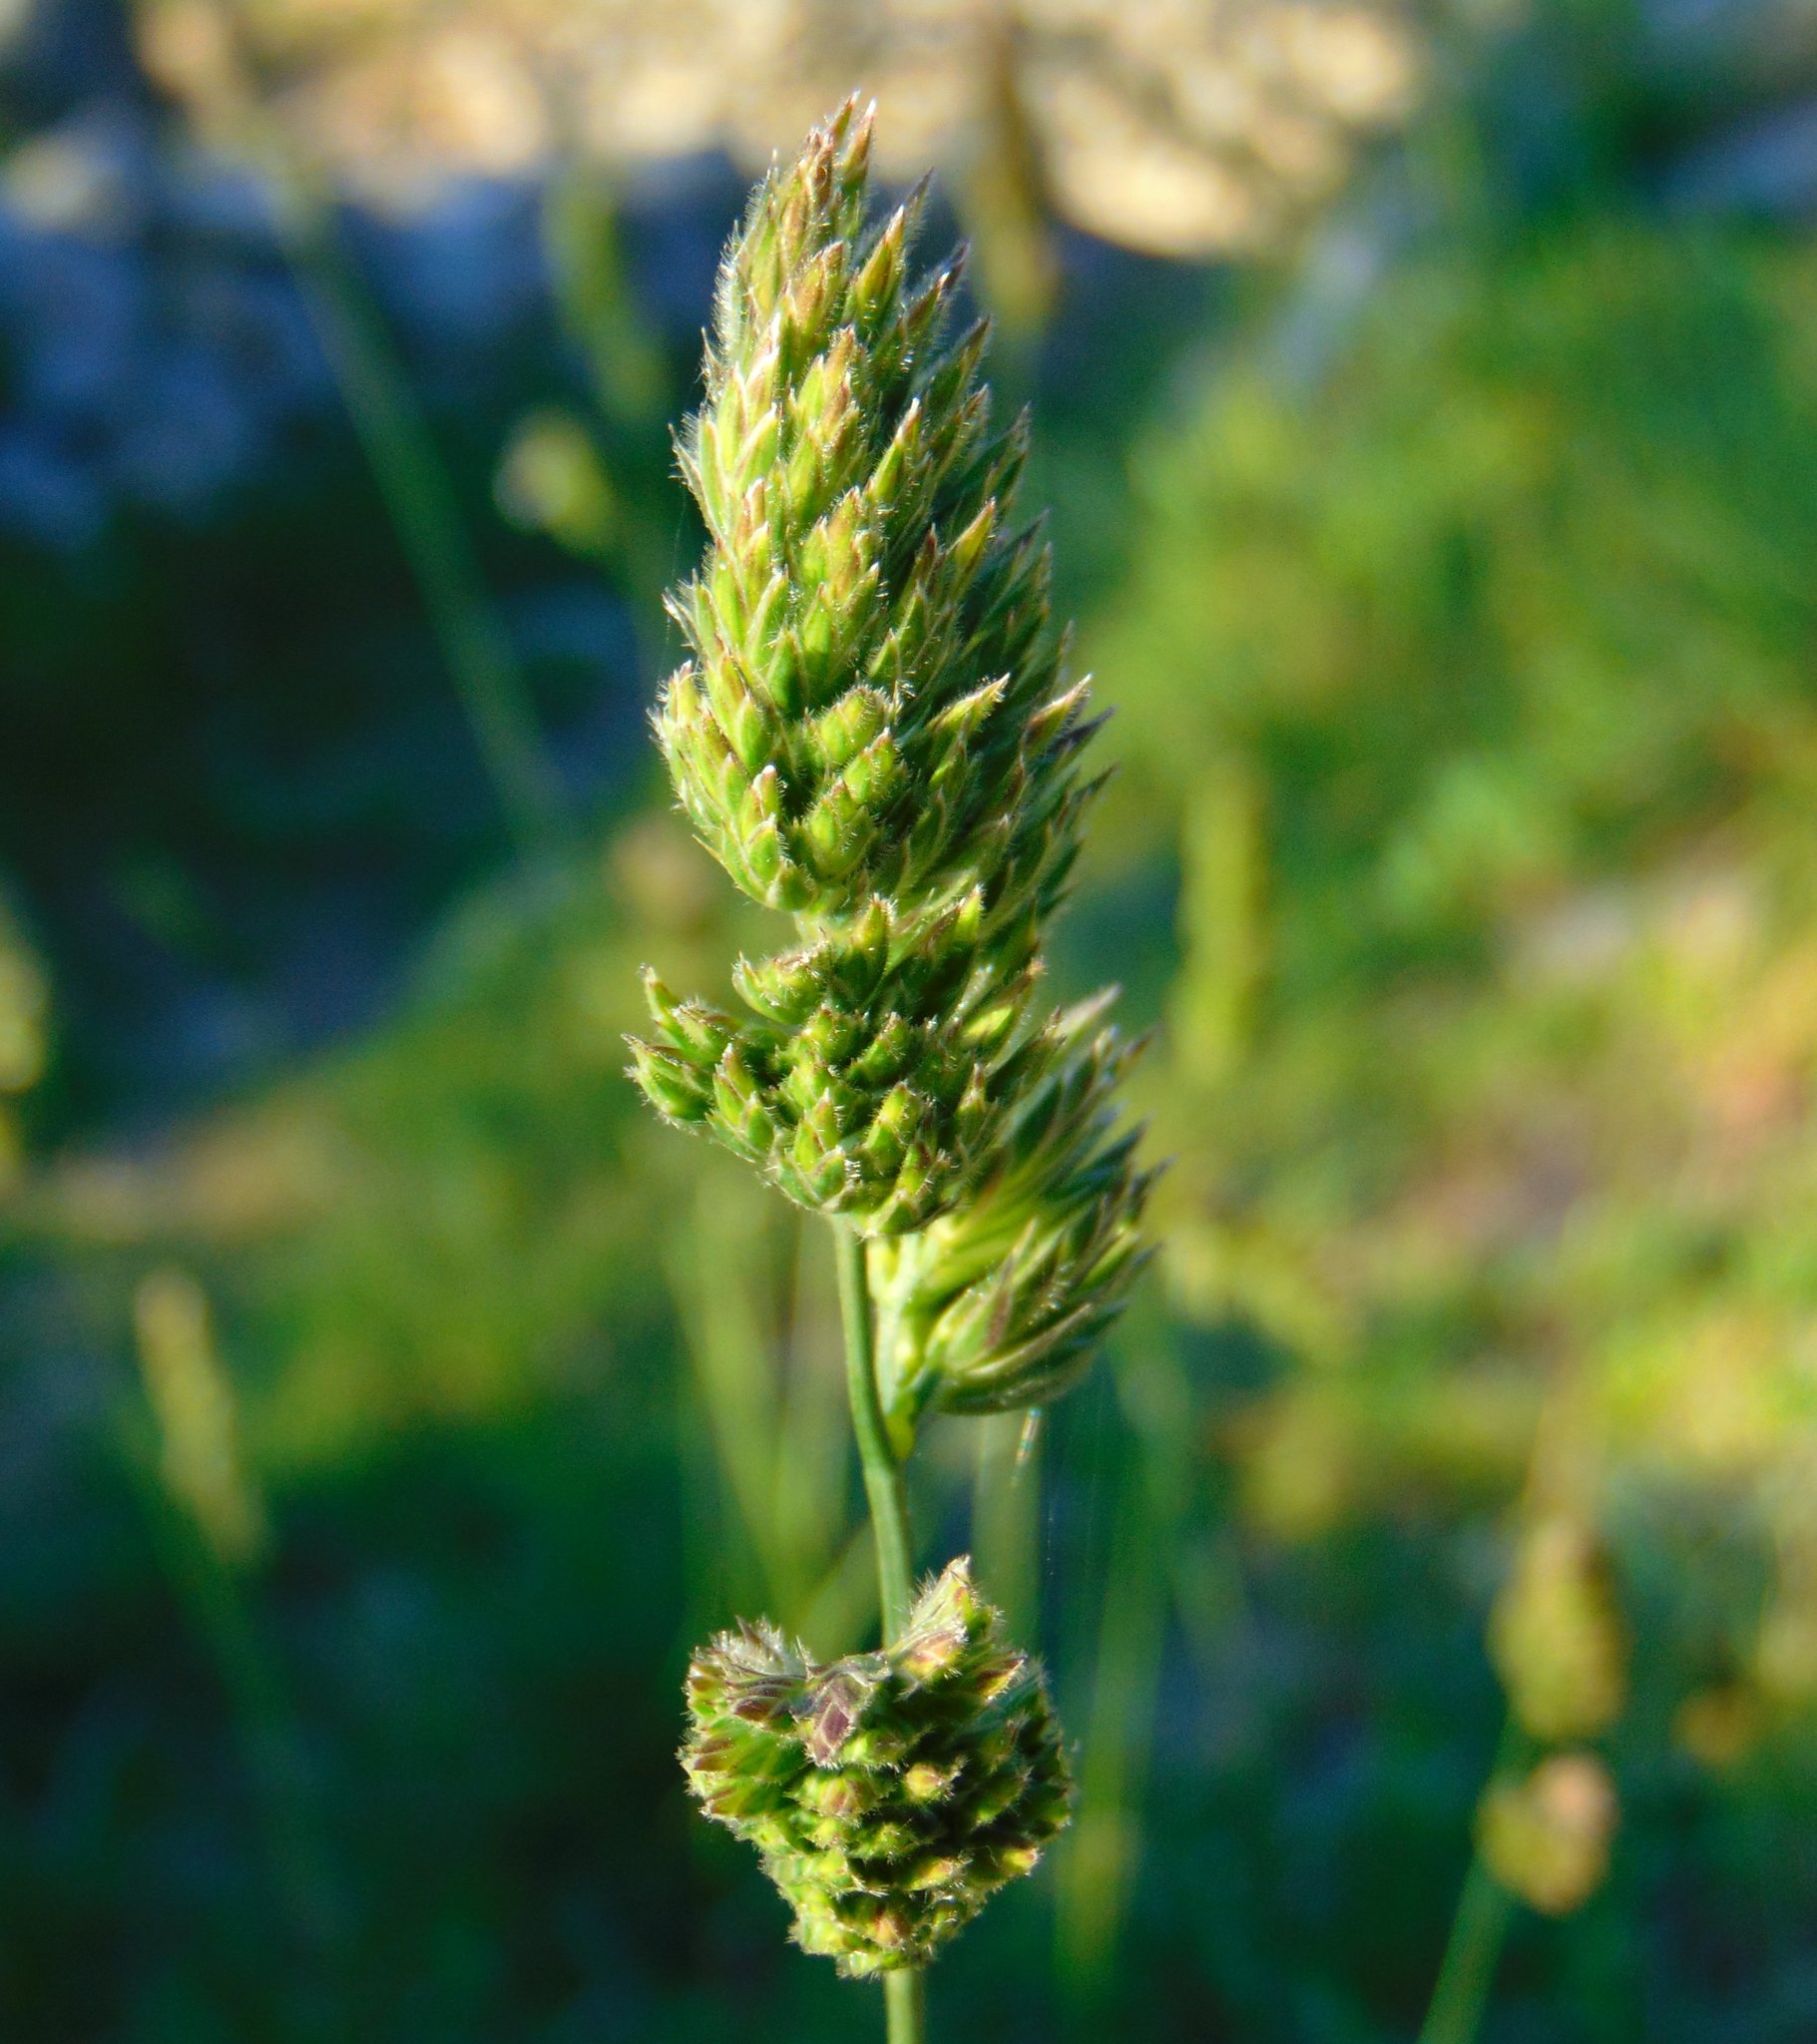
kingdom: Plantae
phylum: Tracheophyta
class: Liliopsida
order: Poales
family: Poaceae
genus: Dactylis
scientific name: Dactylis glomerata
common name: Orchardgrass
